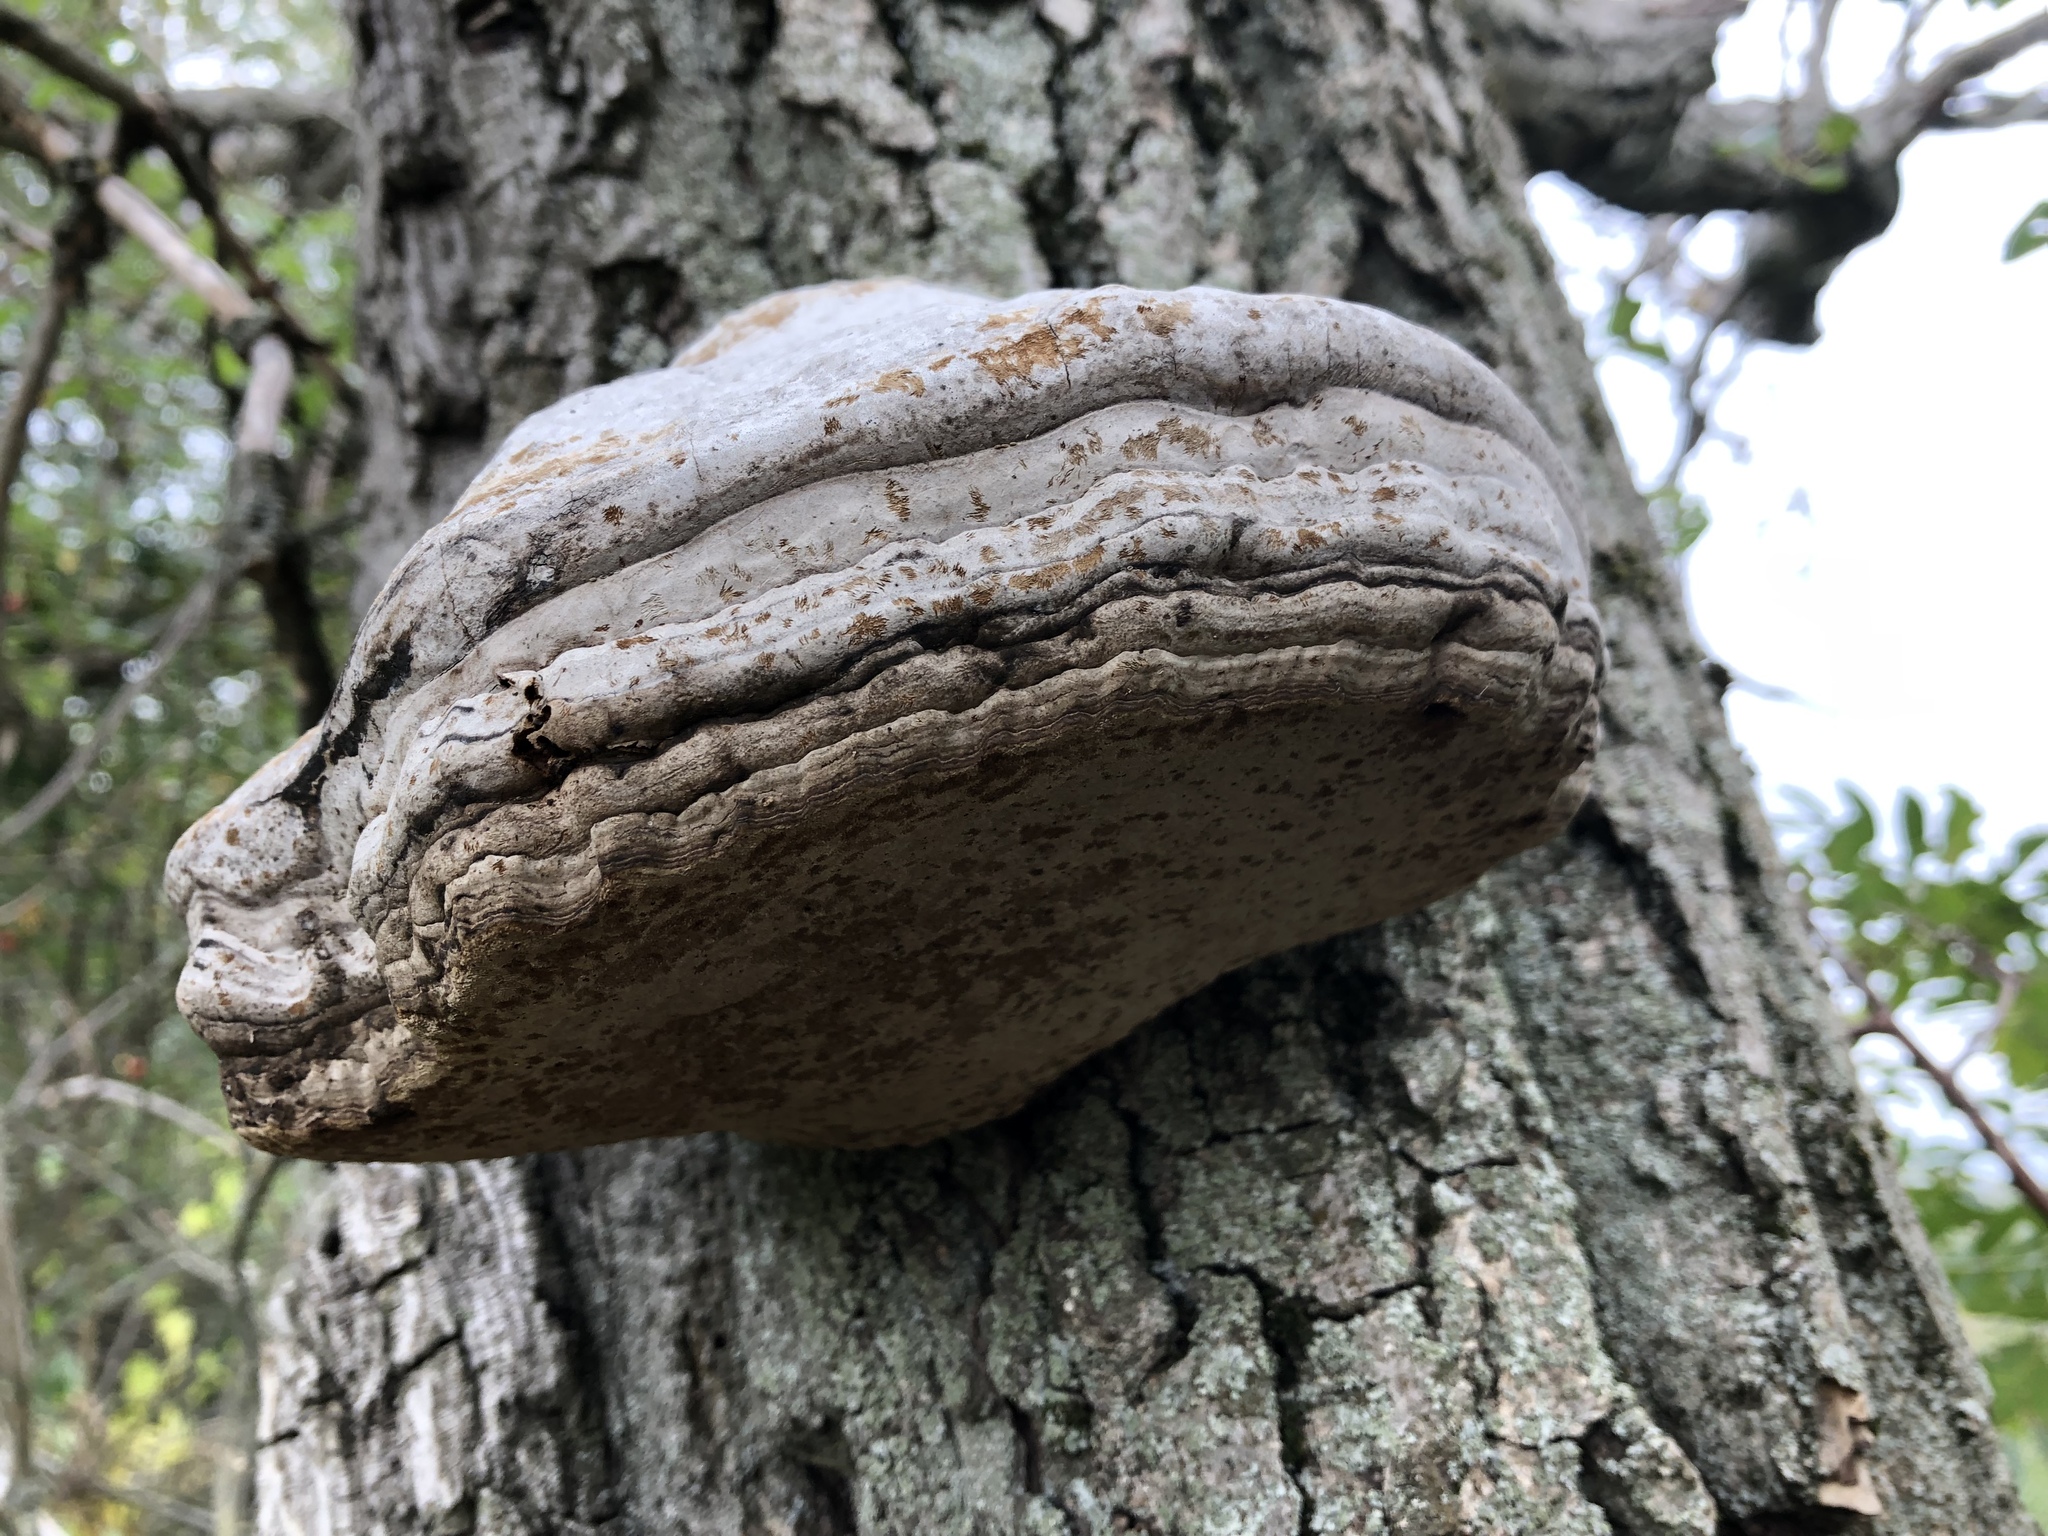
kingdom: Fungi
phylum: Basidiomycota
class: Agaricomycetes
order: Polyporales
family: Polyporaceae
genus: Fomes
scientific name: Fomes fomentarius
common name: Hoof fungus
